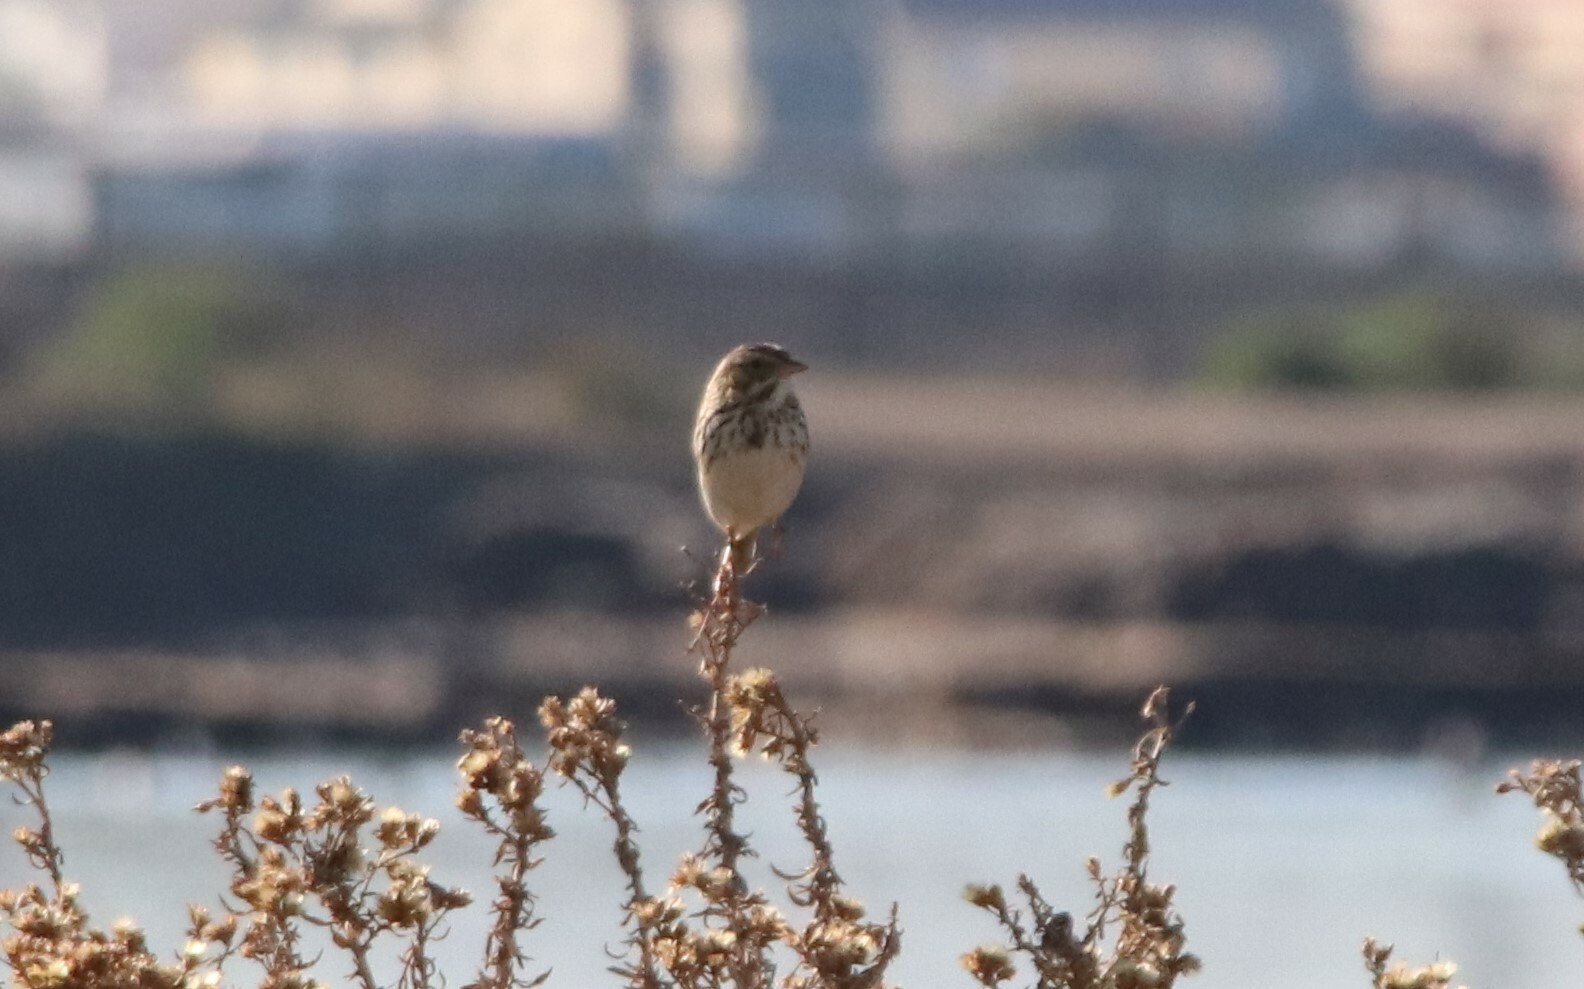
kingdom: Animalia
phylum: Chordata
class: Aves
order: Passeriformes
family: Passerellidae
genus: Passerculus
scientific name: Passerculus sandwichensis
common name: Savannah sparrow
